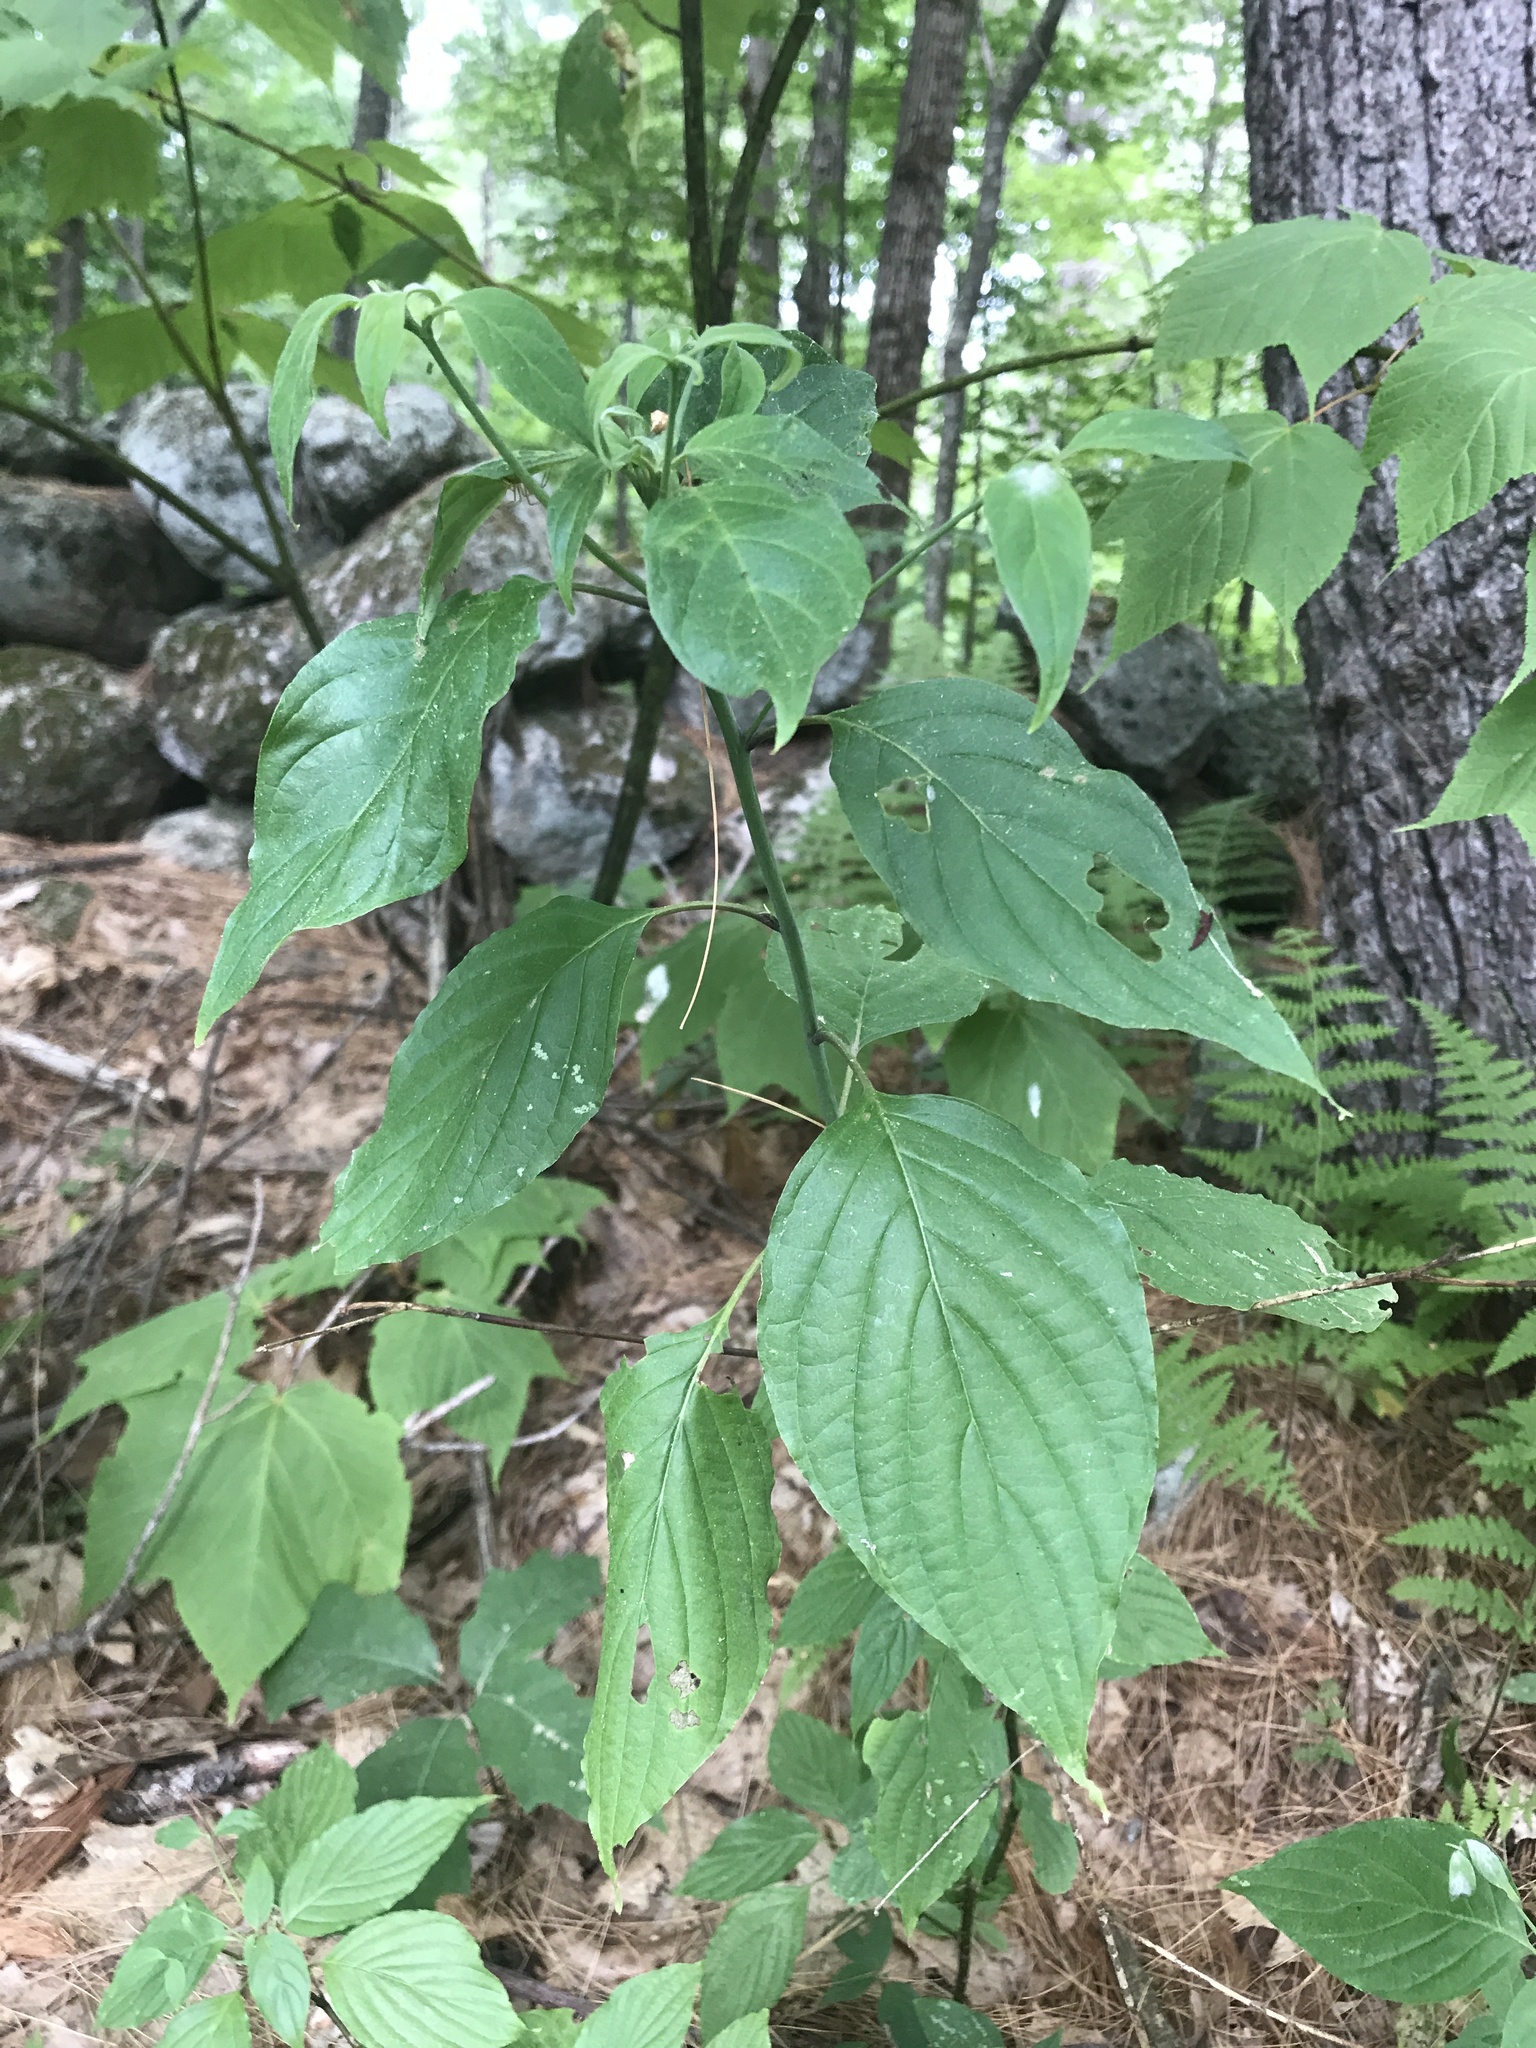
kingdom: Plantae
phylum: Tracheophyta
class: Magnoliopsida
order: Cornales
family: Cornaceae
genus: Cornus
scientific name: Cornus alternifolia
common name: Pagoda dogwood
